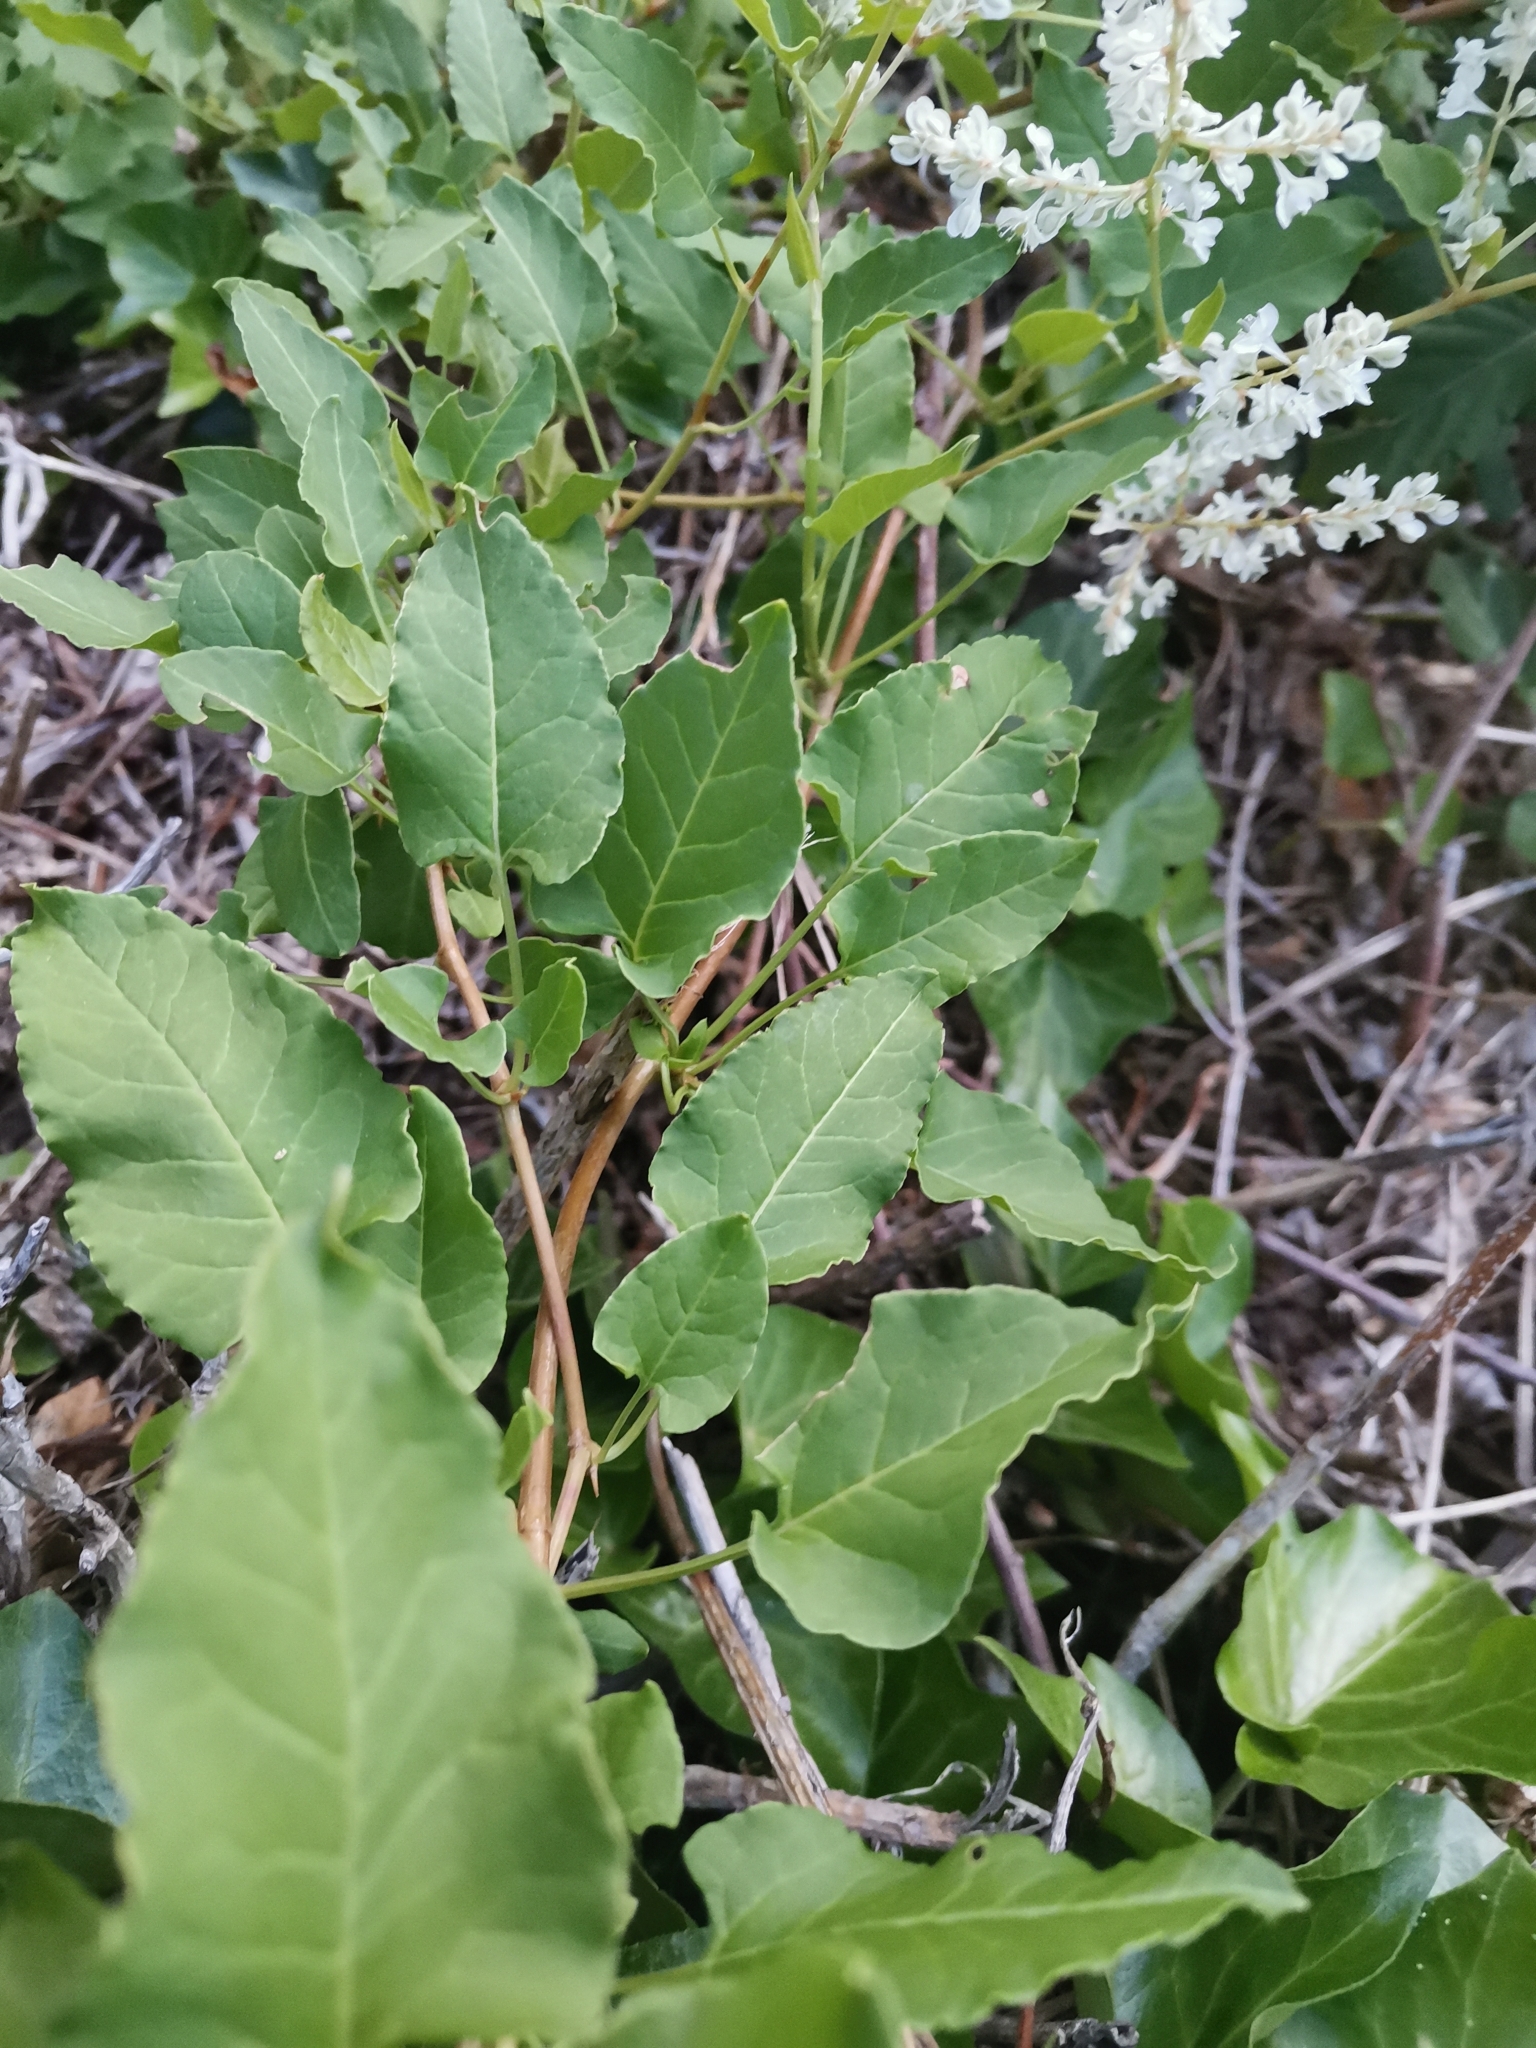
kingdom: Plantae
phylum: Tracheophyta
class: Magnoliopsida
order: Caryophyllales
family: Polygonaceae
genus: Fallopia
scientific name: Fallopia baldschuanica
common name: Russian-vine
